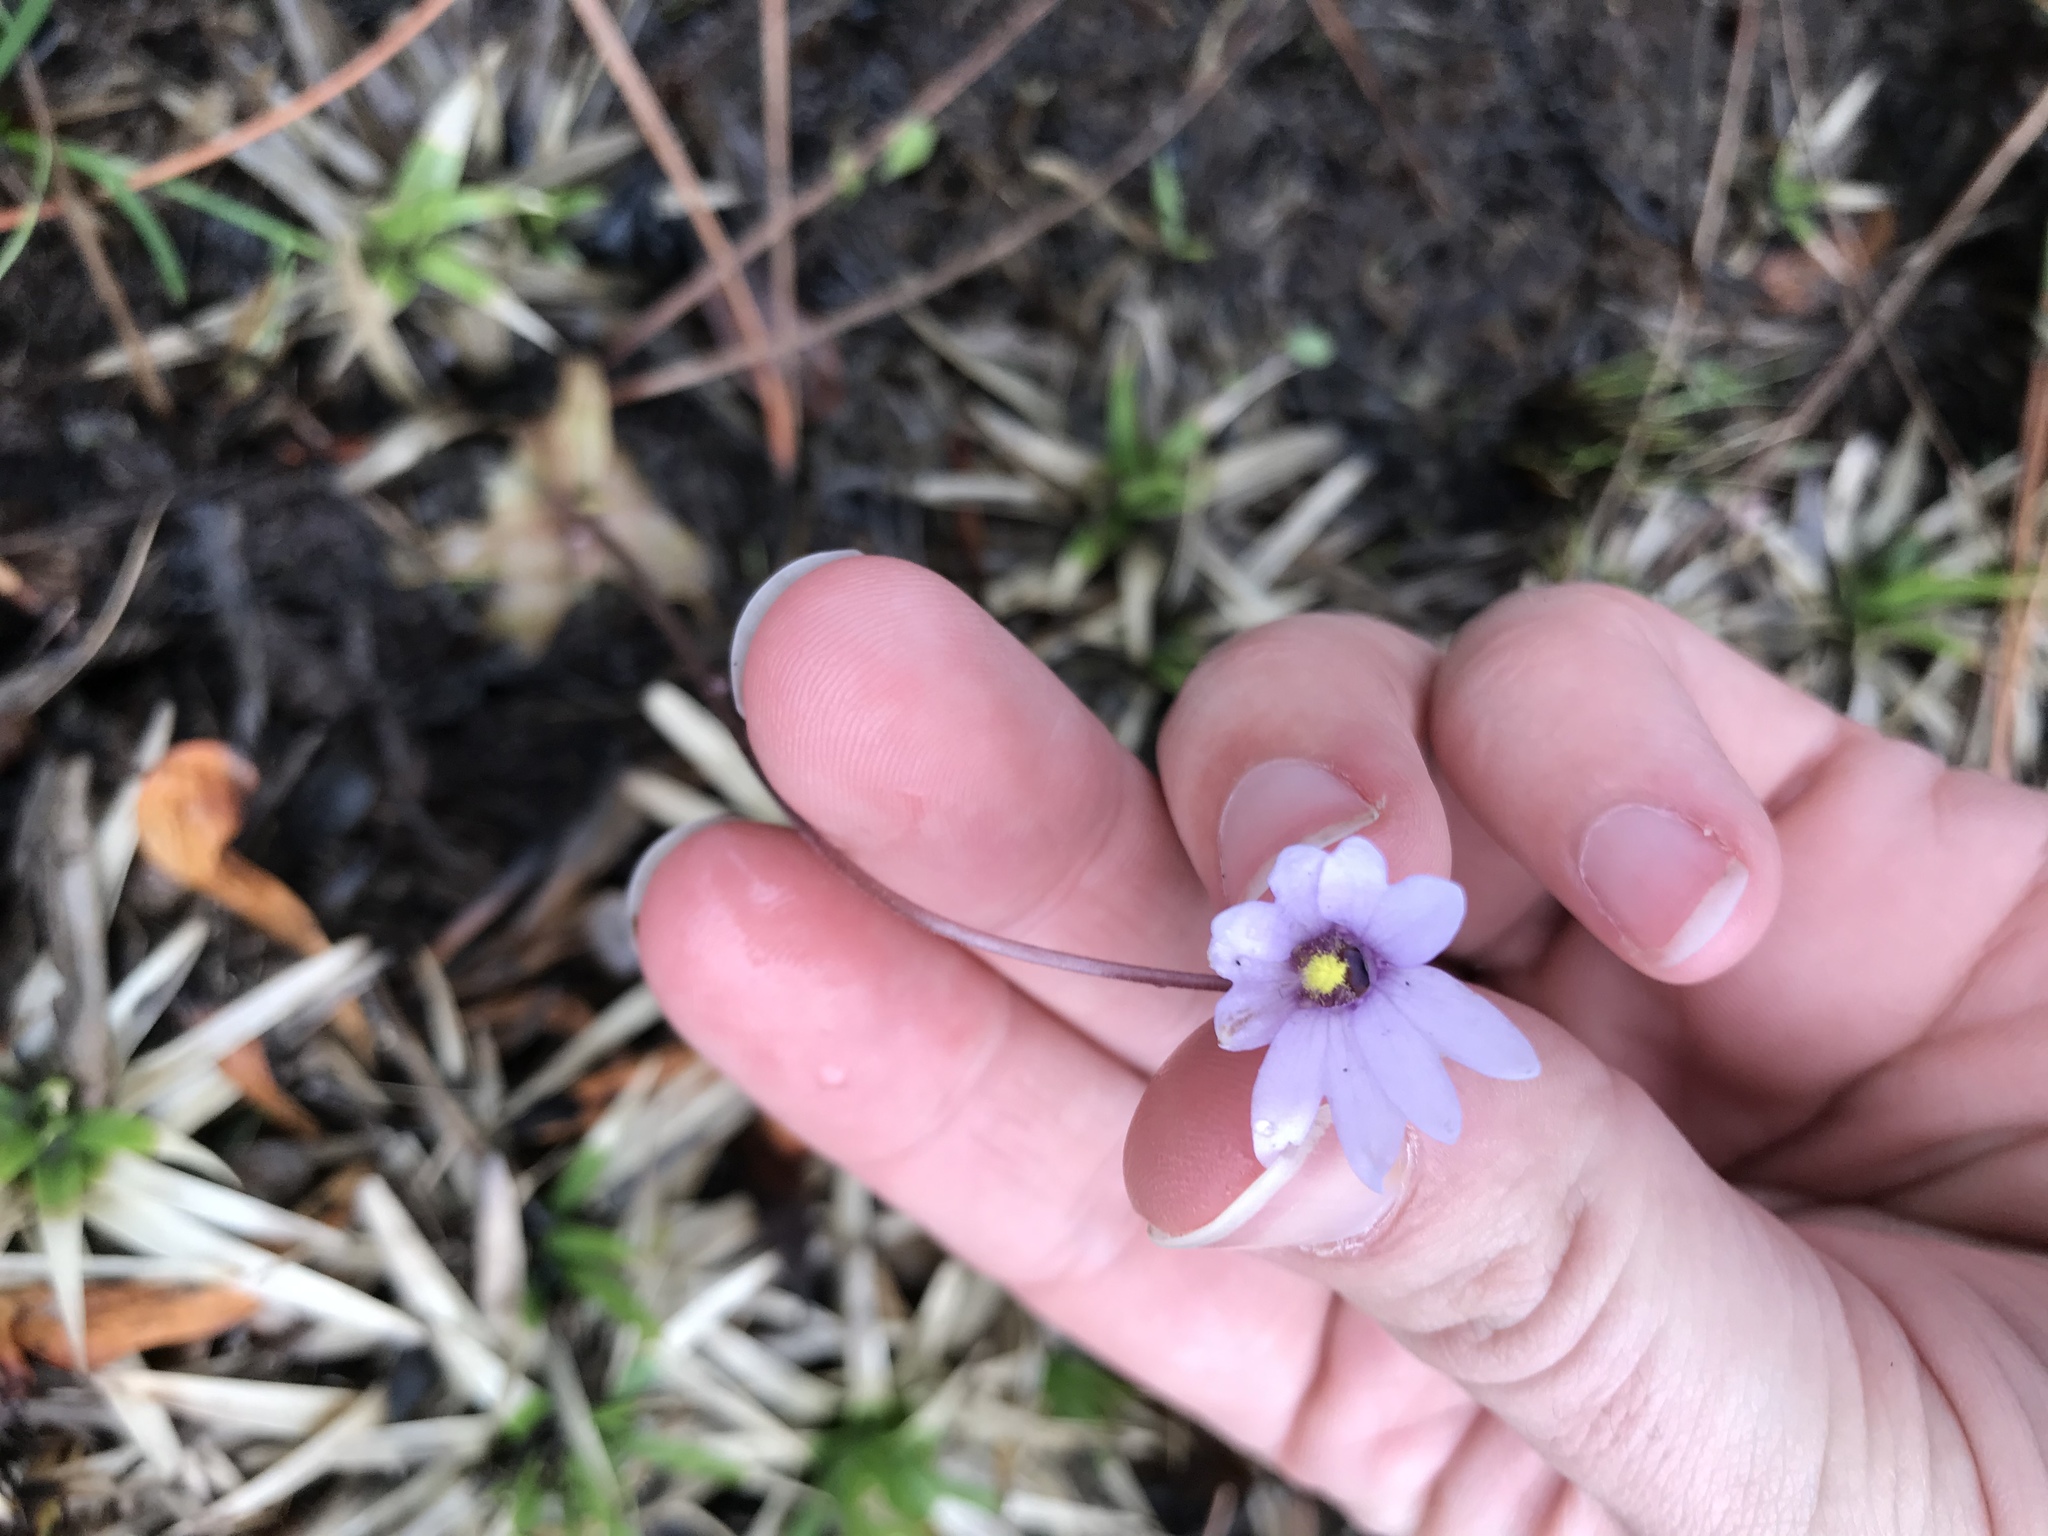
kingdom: Plantae
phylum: Tracheophyta
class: Magnoliopsida
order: Lamiales
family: Lentibulariaceae
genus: Pinguicula
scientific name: Pinguicula planifolia
